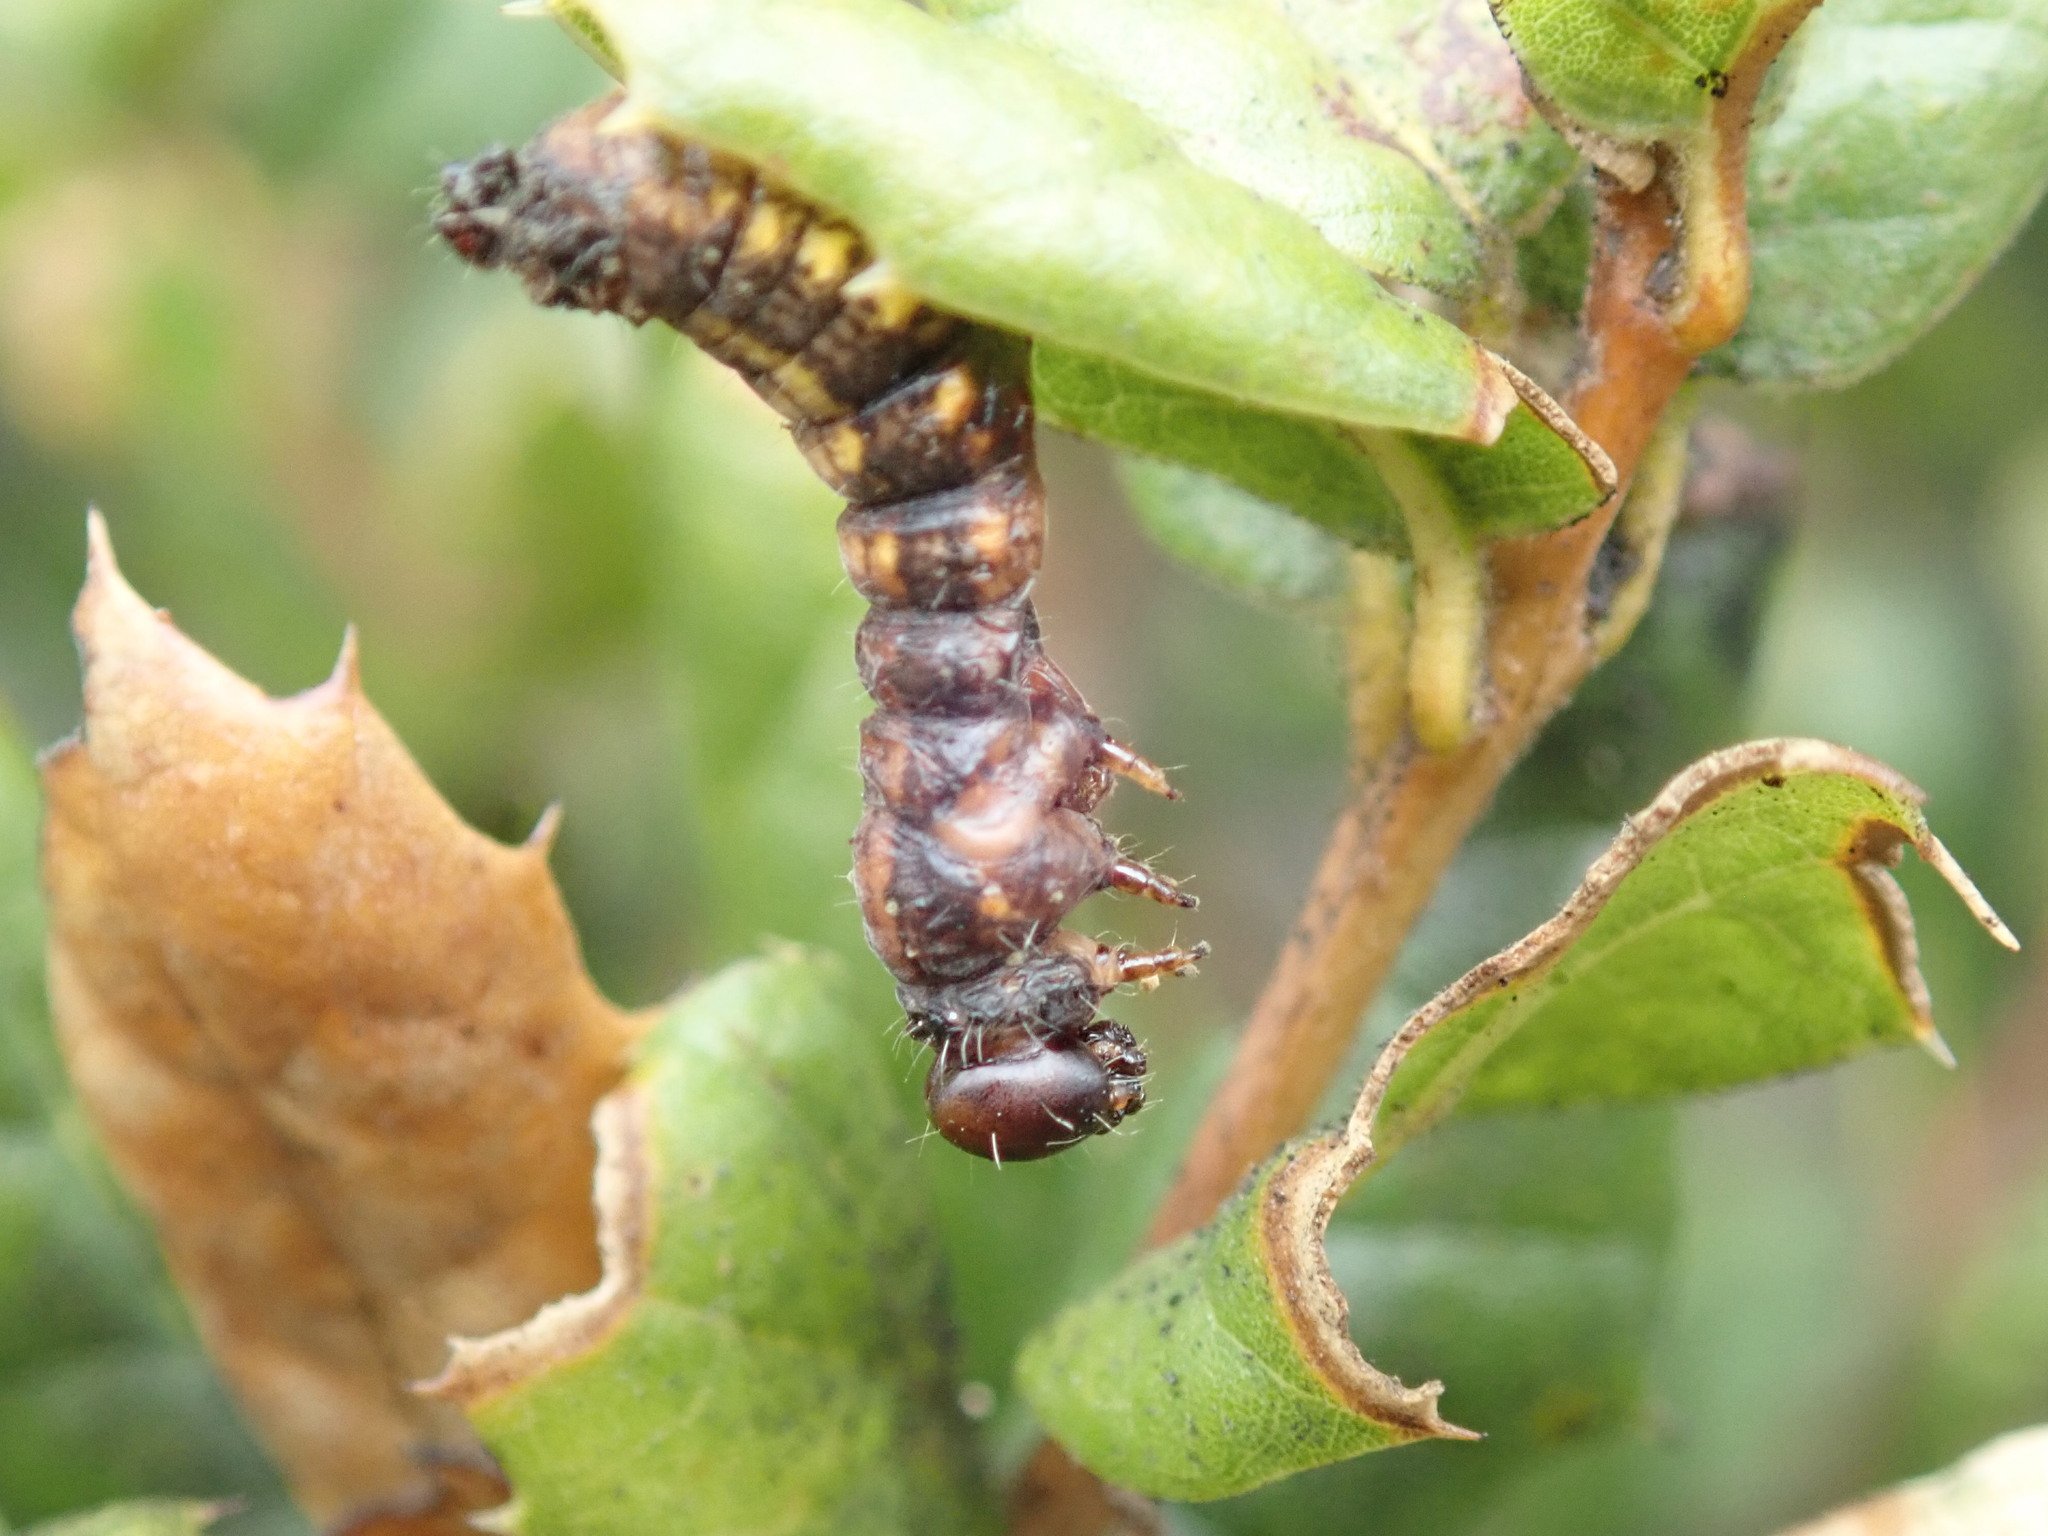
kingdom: Animalia
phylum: Arthropoda
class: Insecta
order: Lepidoptera
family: Notodontidae
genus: Phryganidia
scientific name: Phryganidia californica
